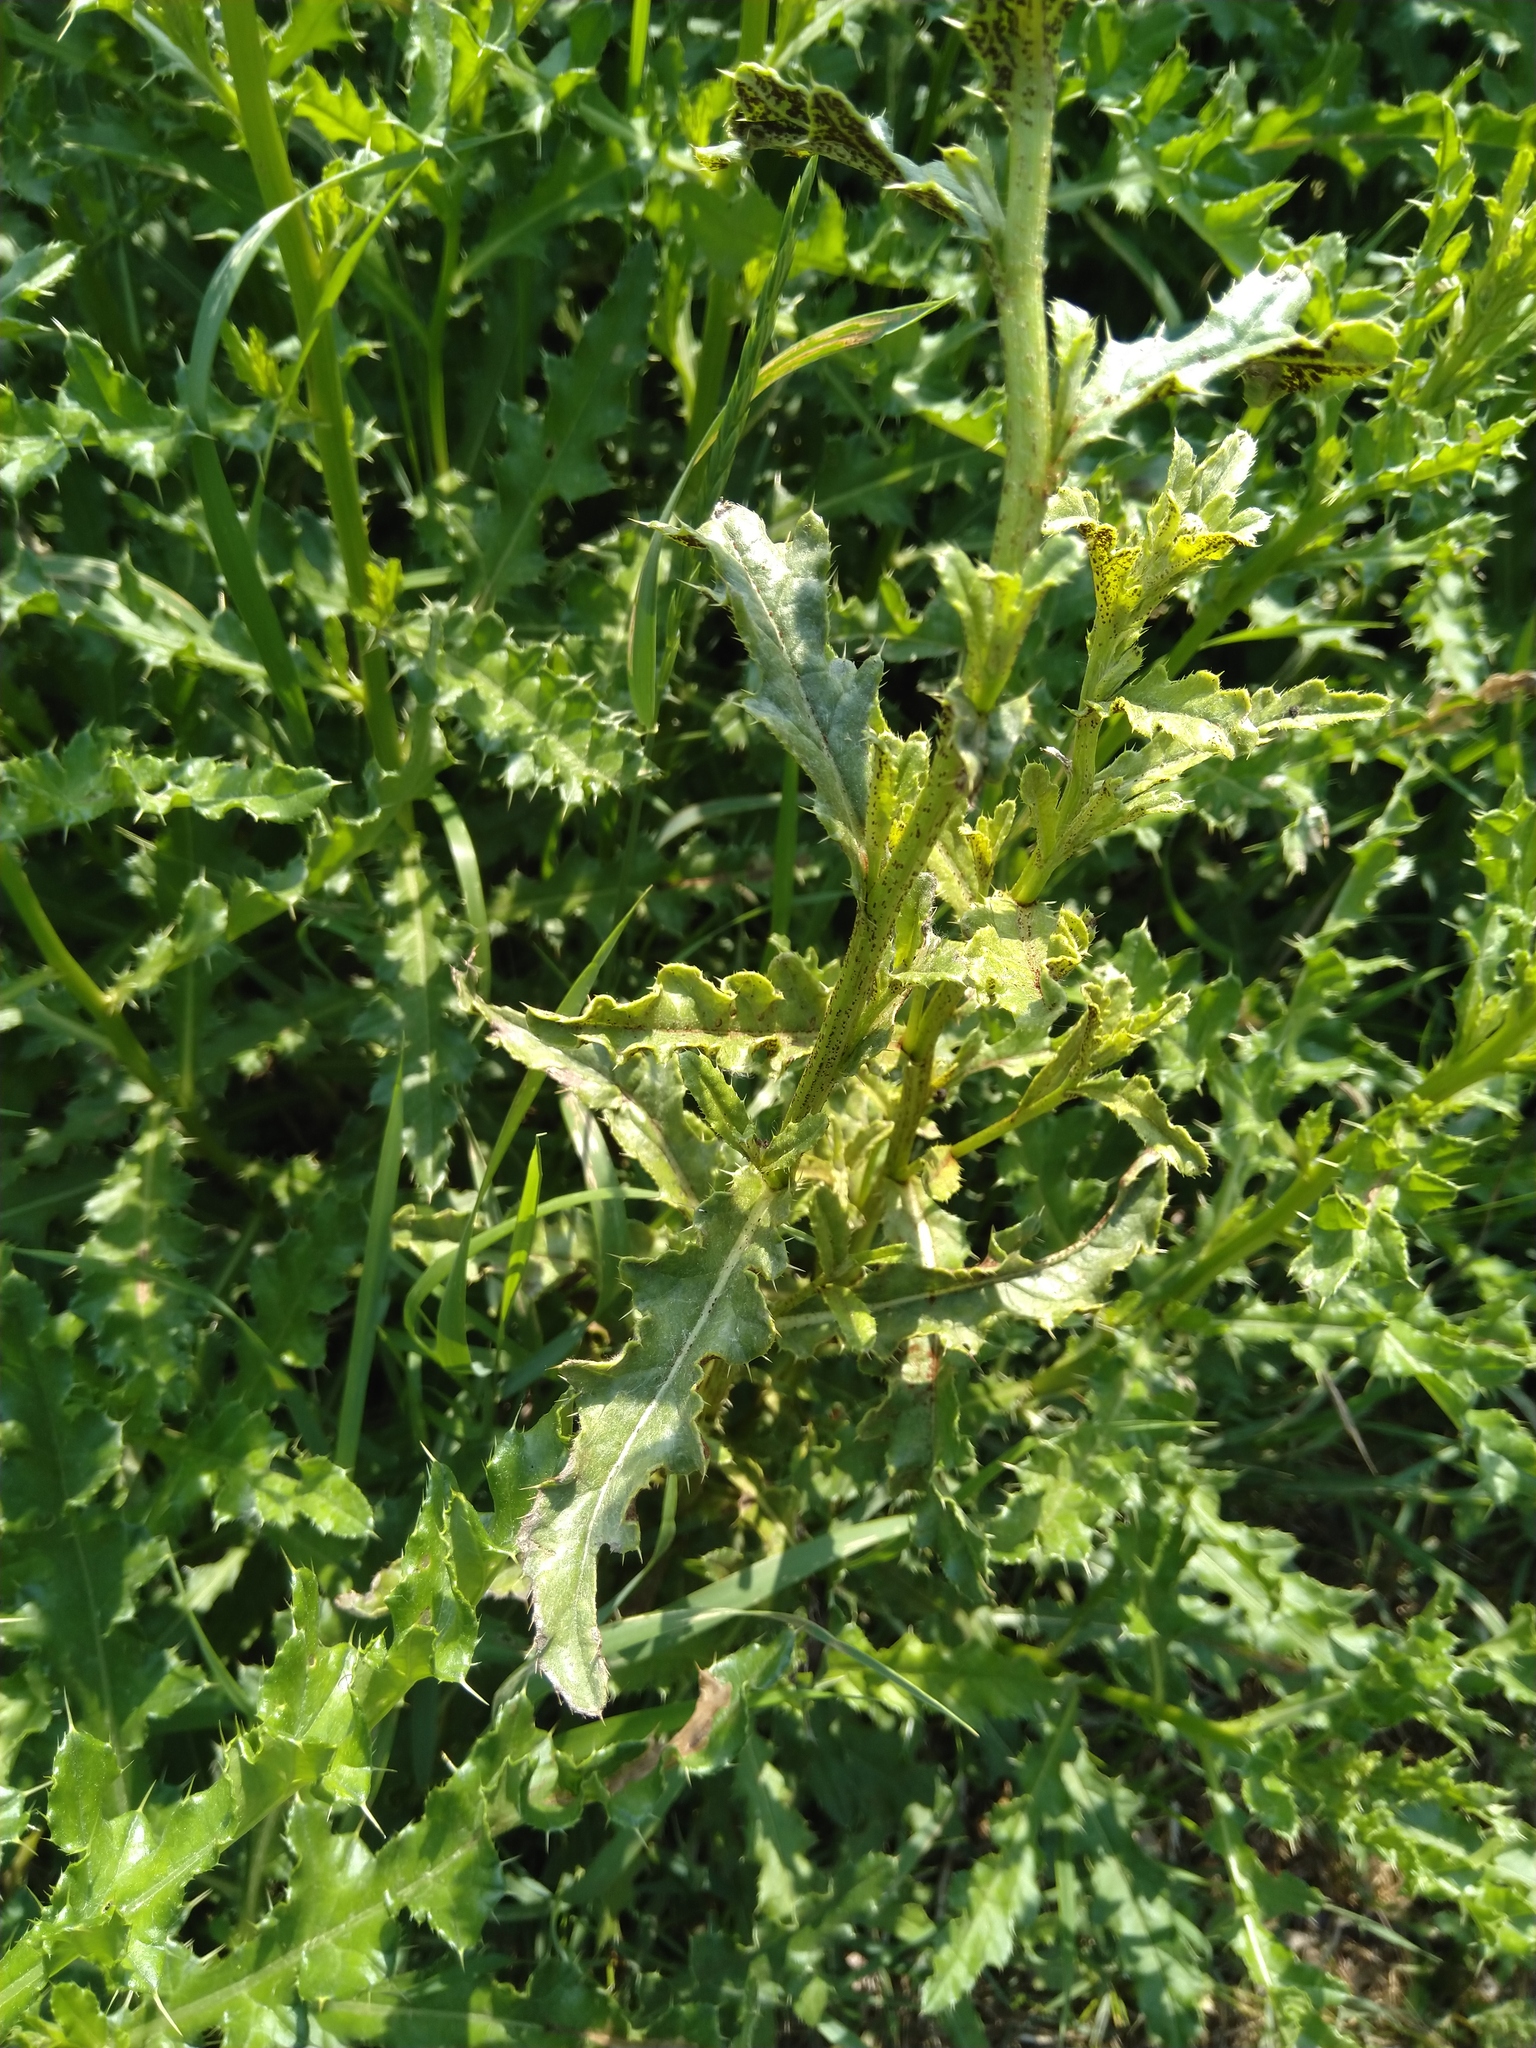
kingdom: Fungi
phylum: Basidiomycota
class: Pucciniomycetes
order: Pucciniales
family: Pucciniaceae
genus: Puccinia
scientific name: Puccinia suaveolens
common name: Thistle rust
